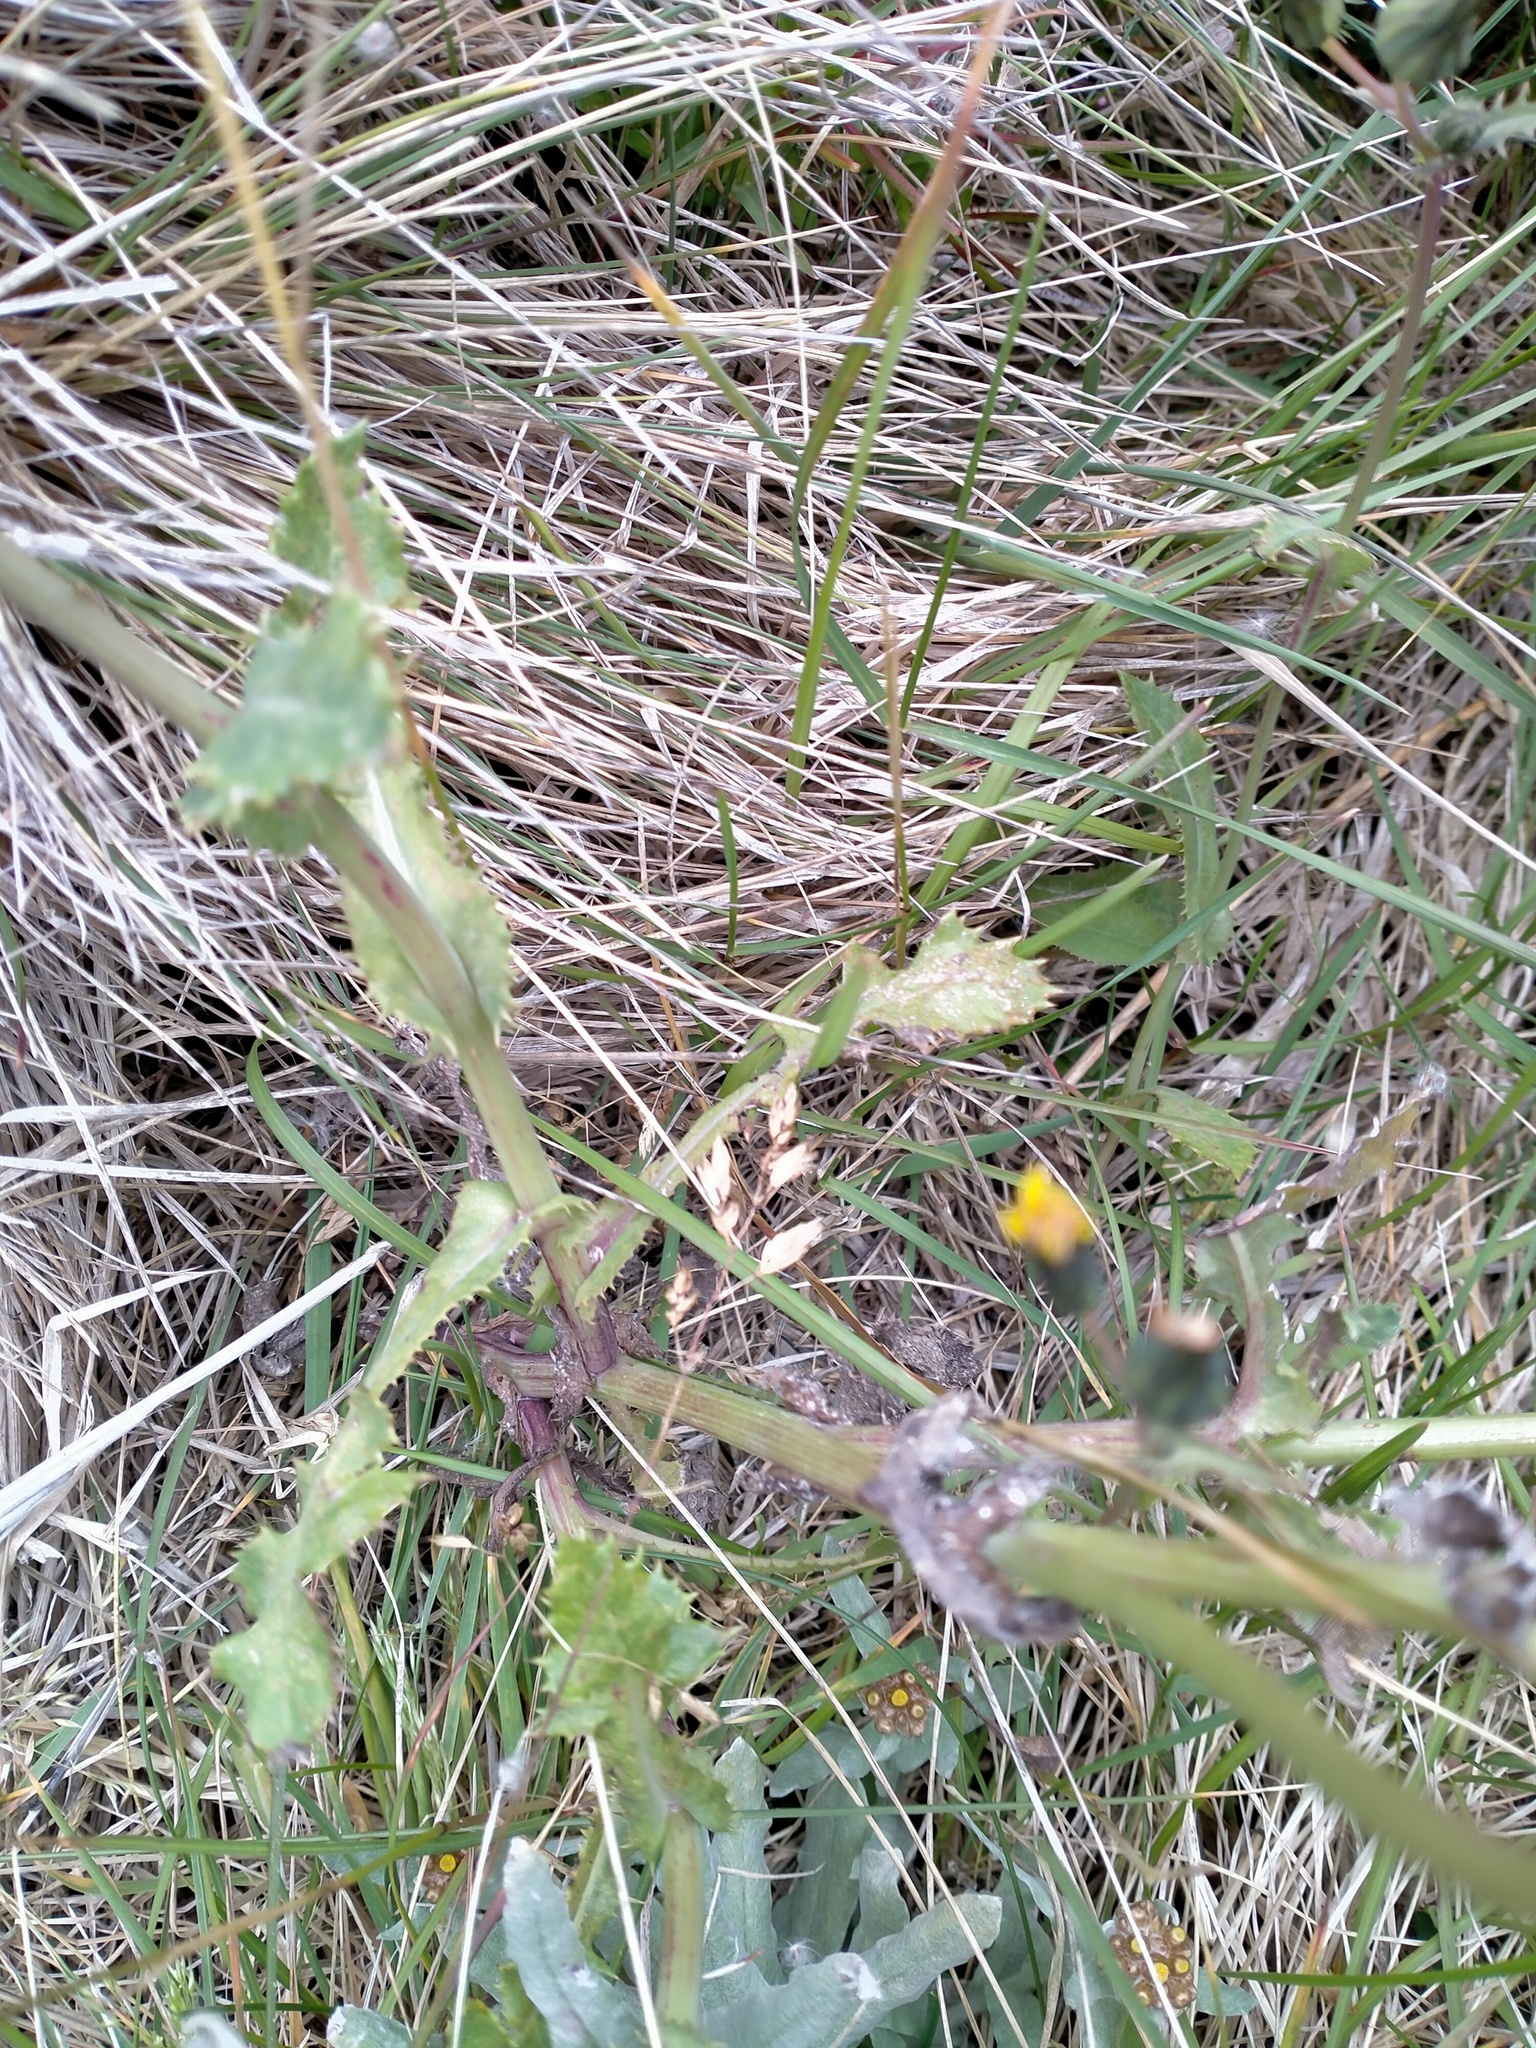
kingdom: Plantae
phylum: Tracheophyta
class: Magnoliopsida
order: Asterales
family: Asteraceae
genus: Sonchus
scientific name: Sonchus oleraceus
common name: Common sowthistle
